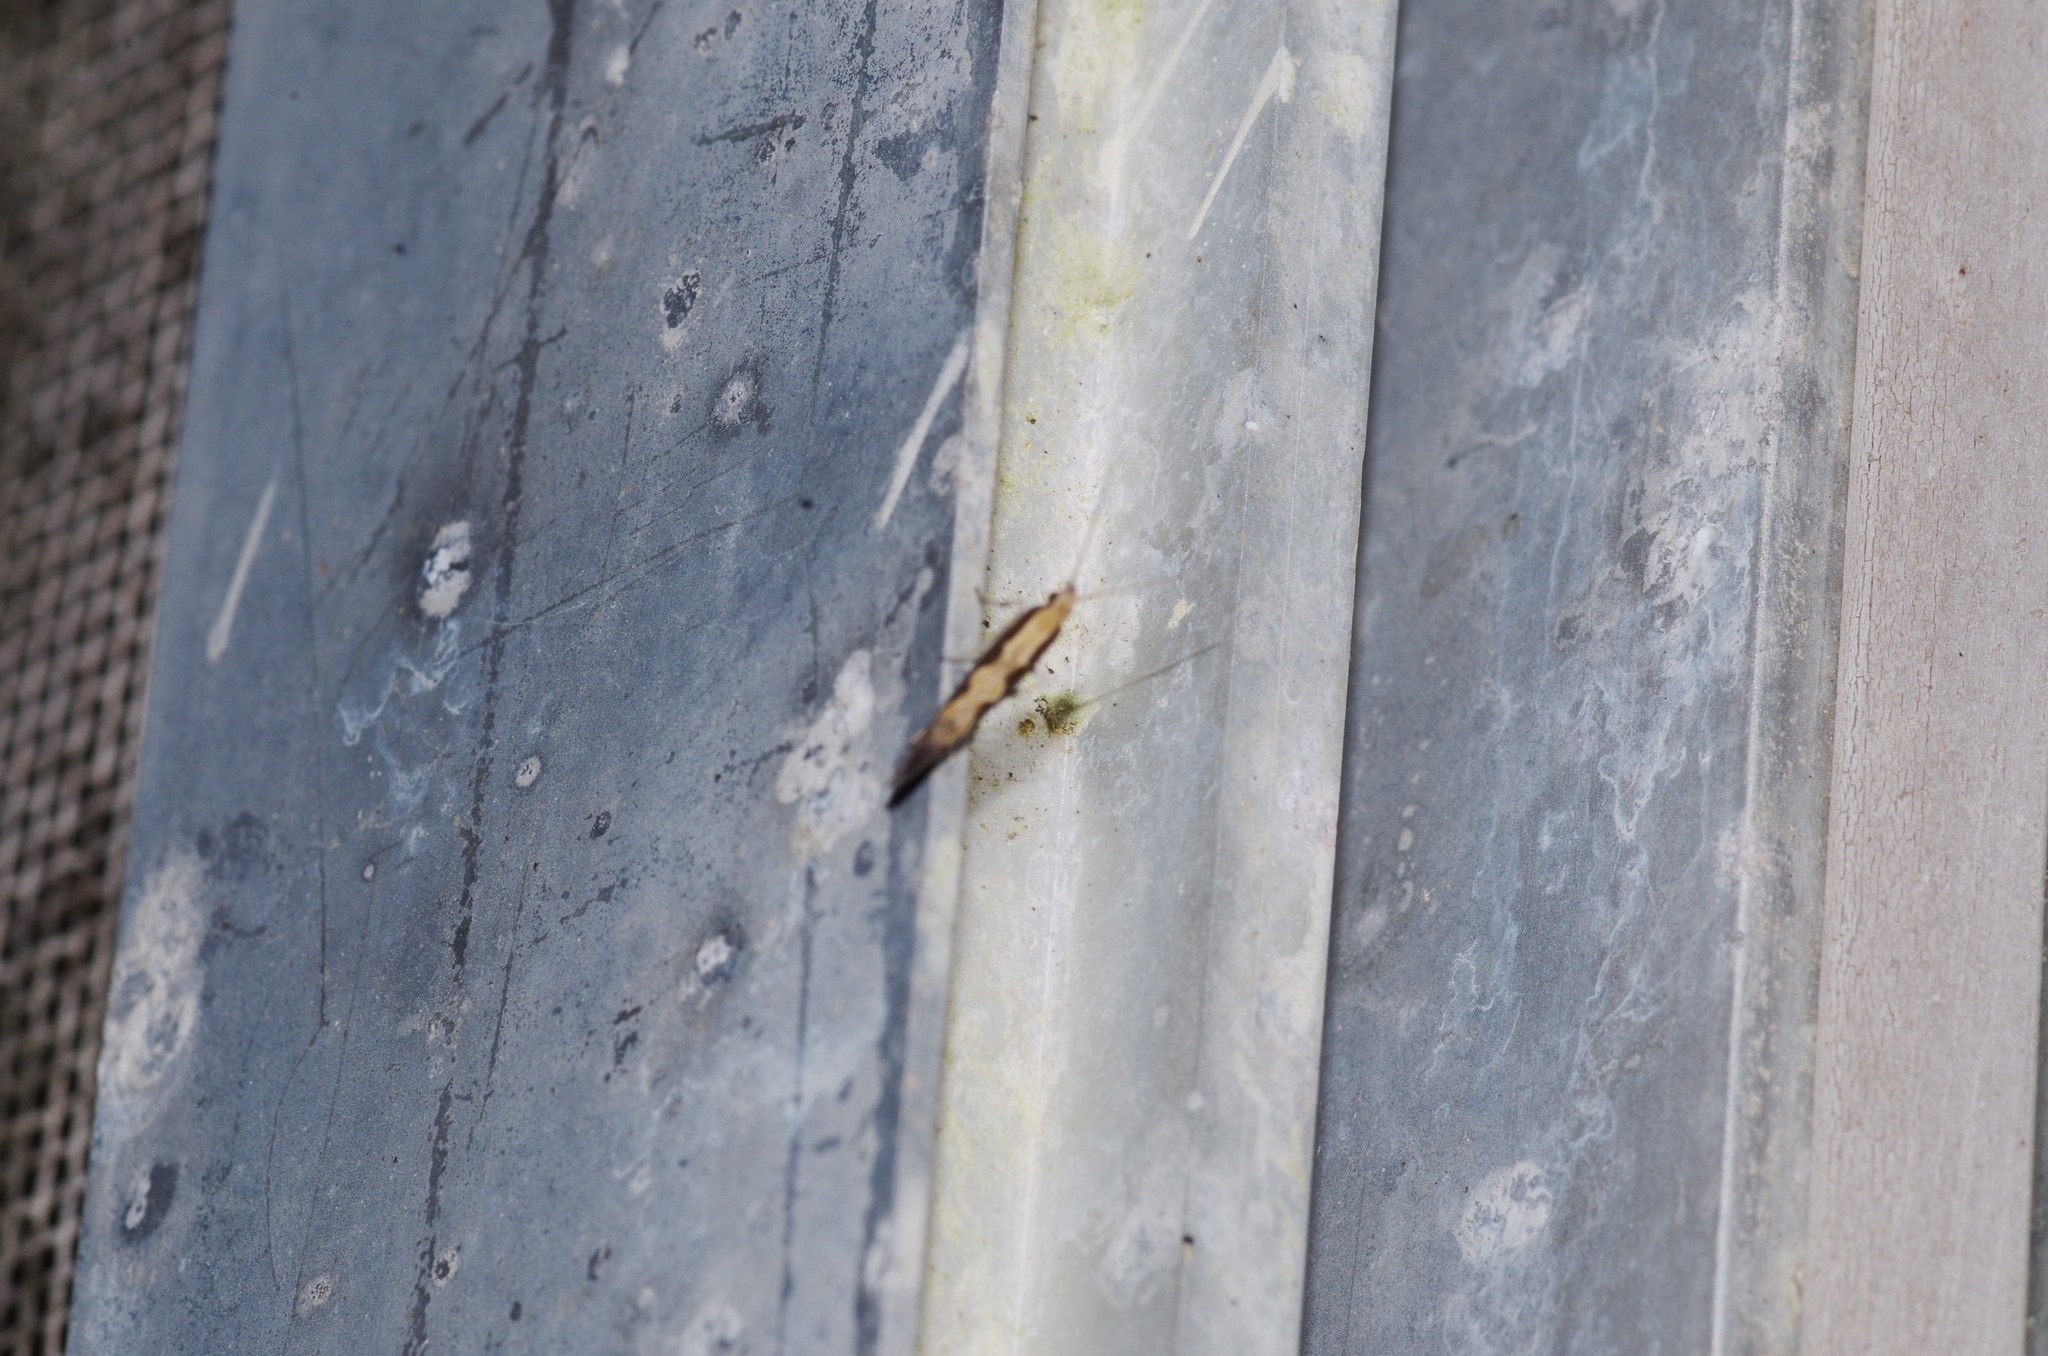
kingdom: Animalia
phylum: Arthropoda
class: Insecta
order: Lepidoptera
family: Plutellidae
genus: Plutella
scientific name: Plutella xylostella
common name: Diamond-back moth
